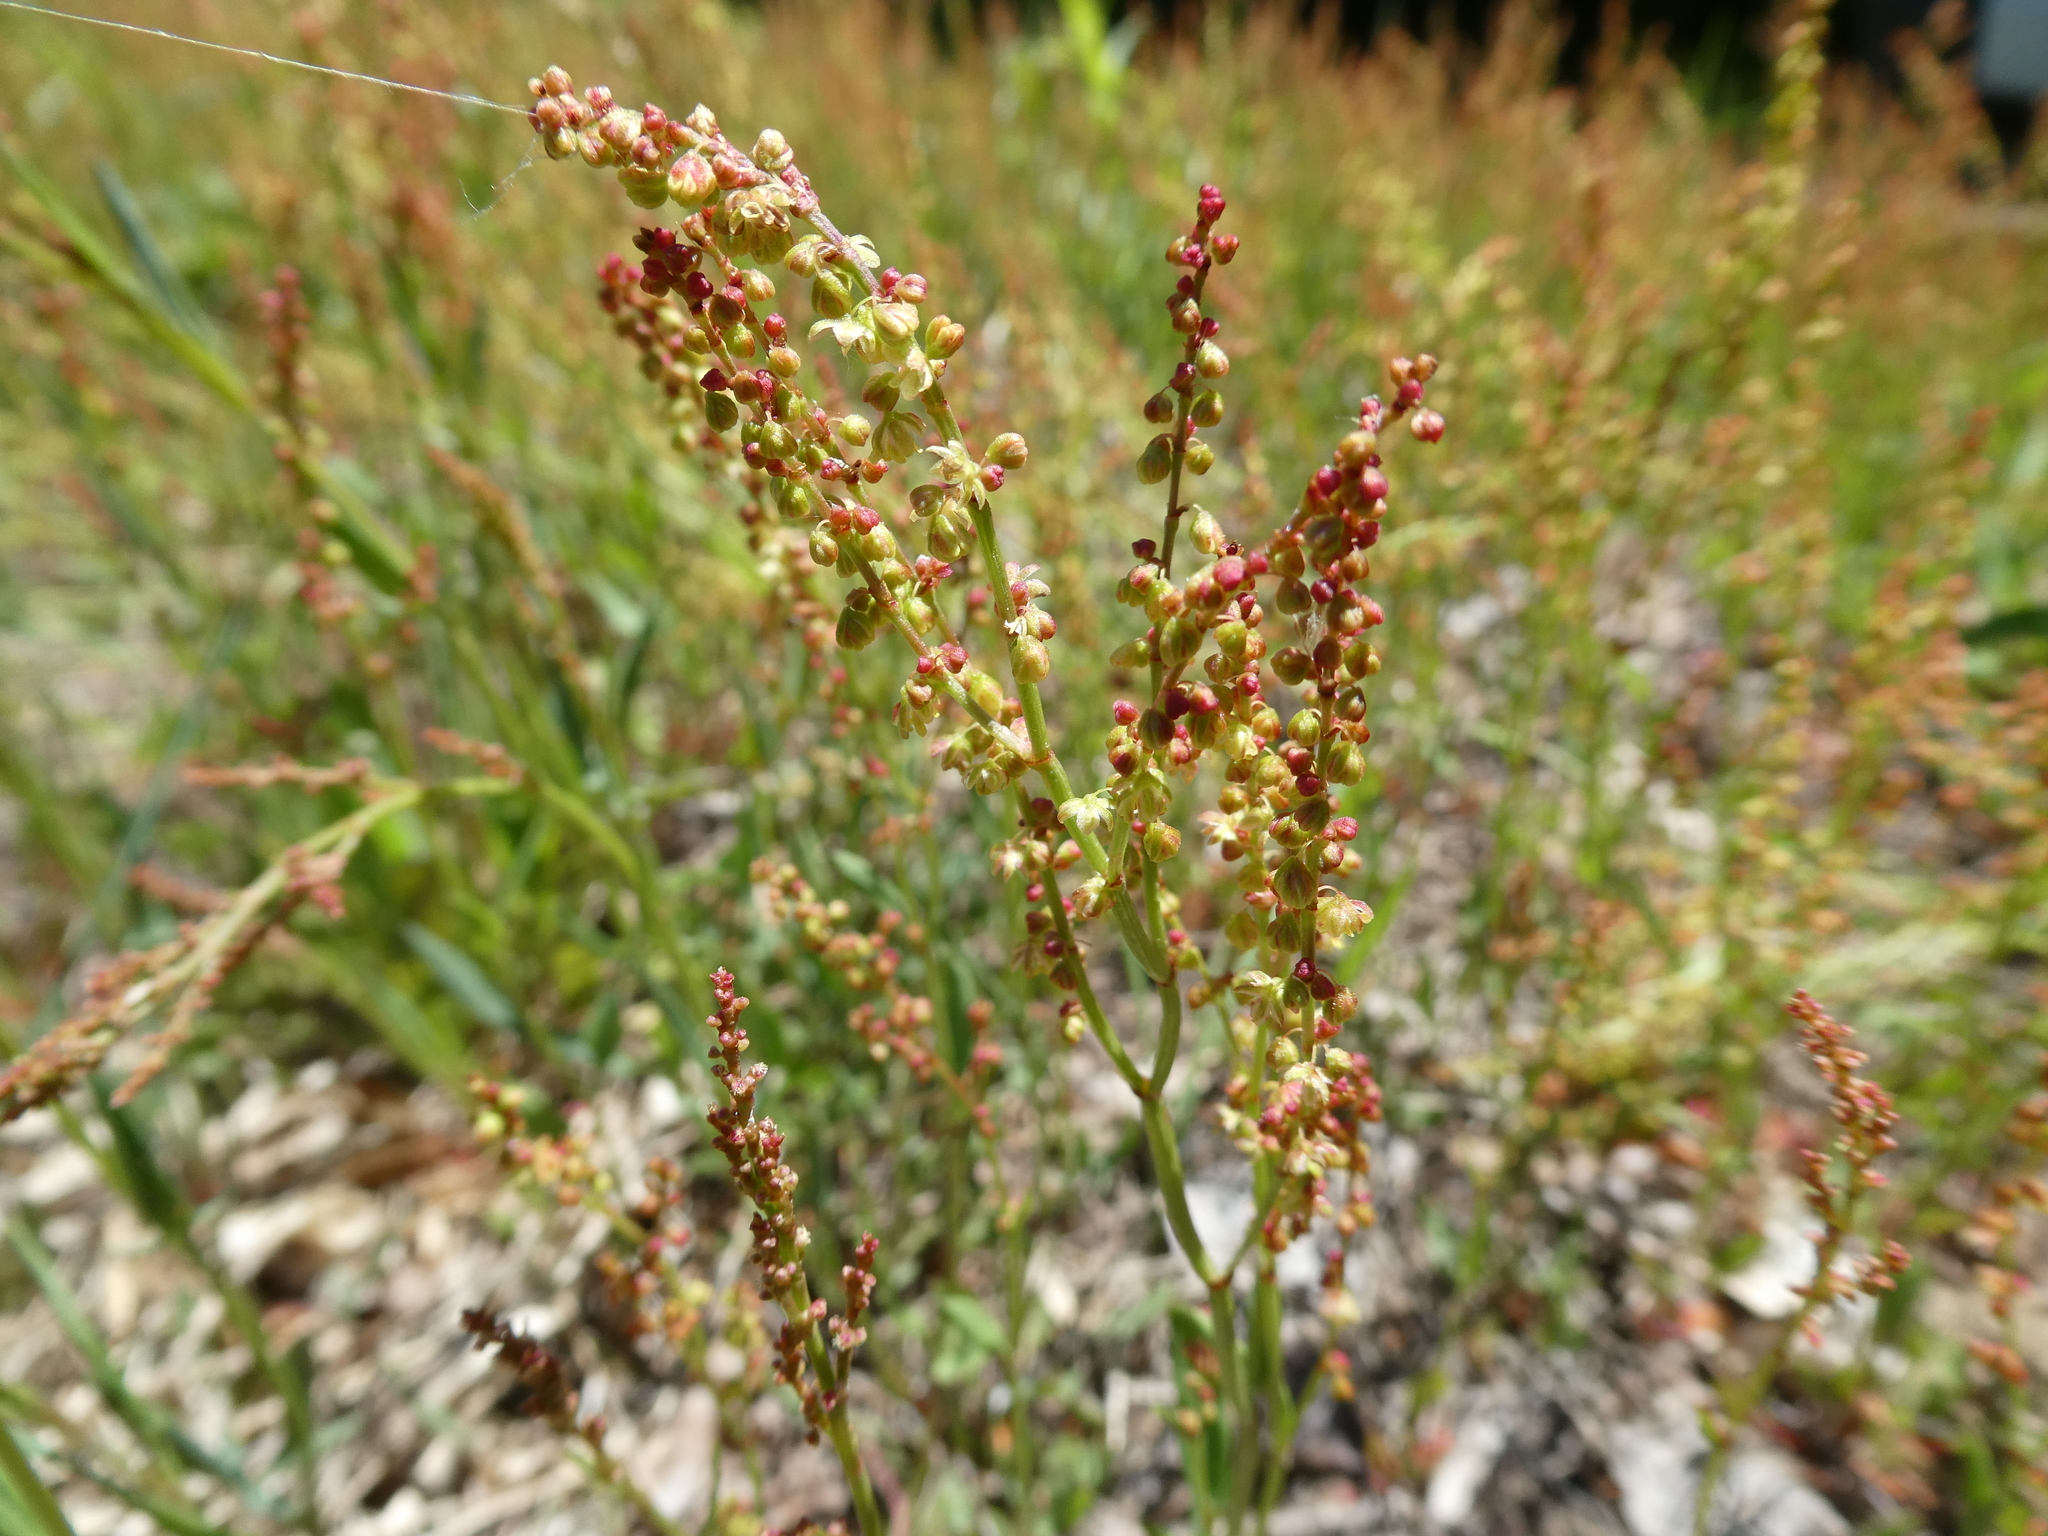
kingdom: Plantae
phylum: Tracheophyta
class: Magnoliopsida
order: Caryophyllales
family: Polygonaceae
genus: Rumex
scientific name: Rumex acetosella
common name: Common sheep sorrel
